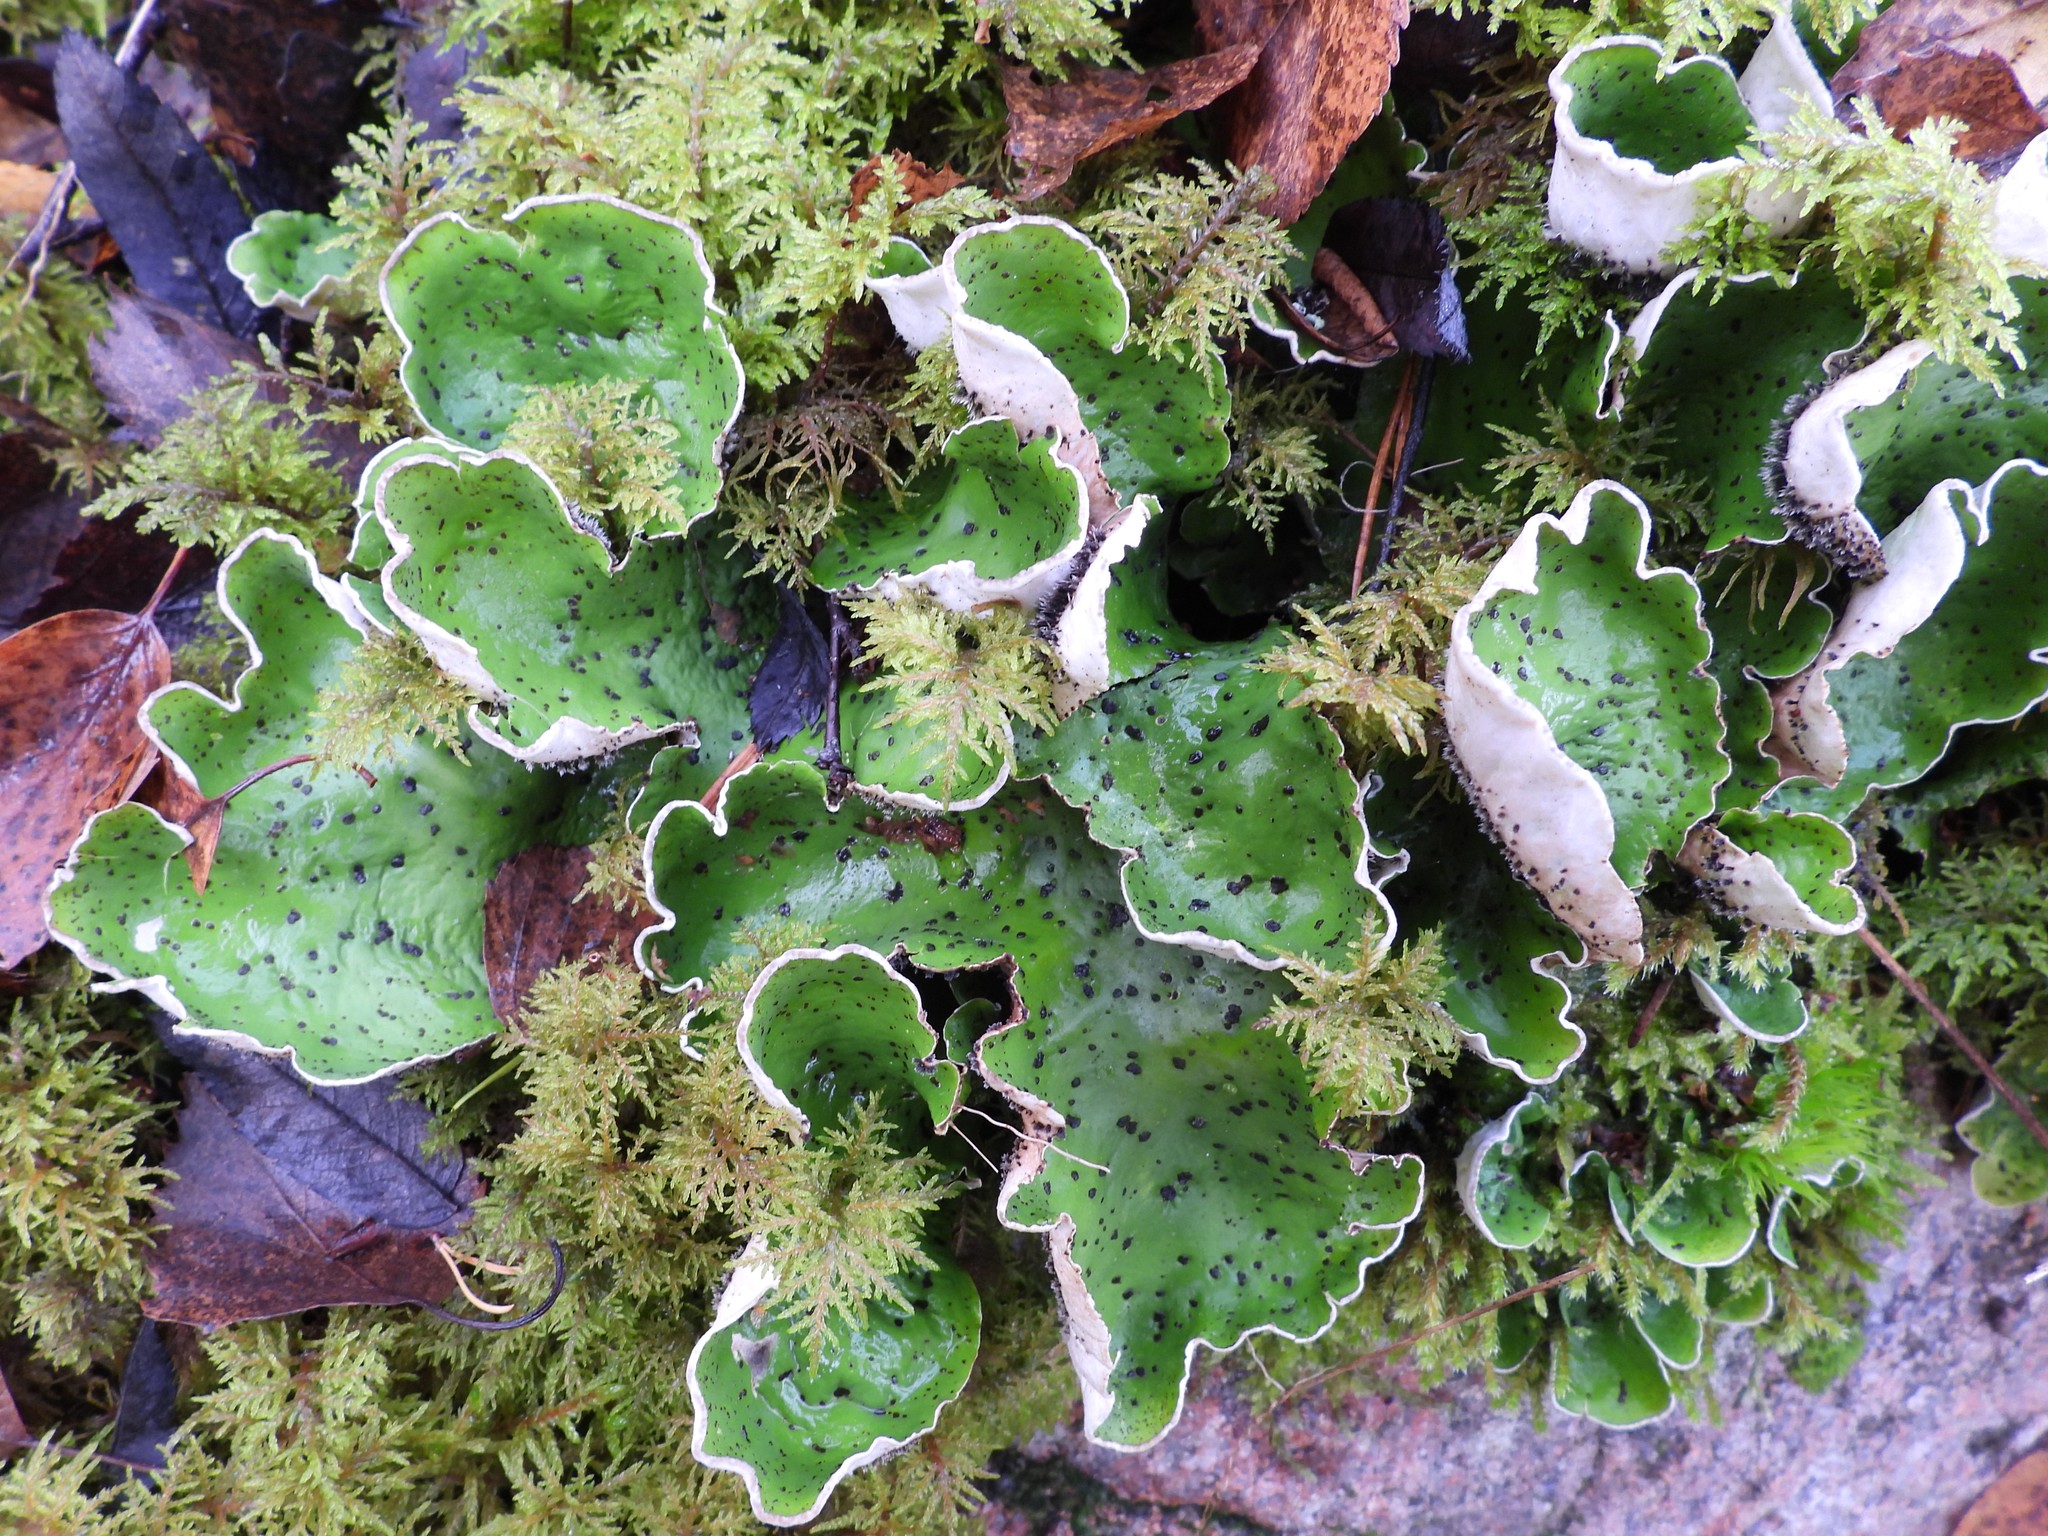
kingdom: Fungi
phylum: Ascomycota
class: Lecanoromycetes
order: Peltigerales
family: Peltigeraceae
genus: Peltigera
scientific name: Peltigera aphthosa
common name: Common freckle pelt lichen
